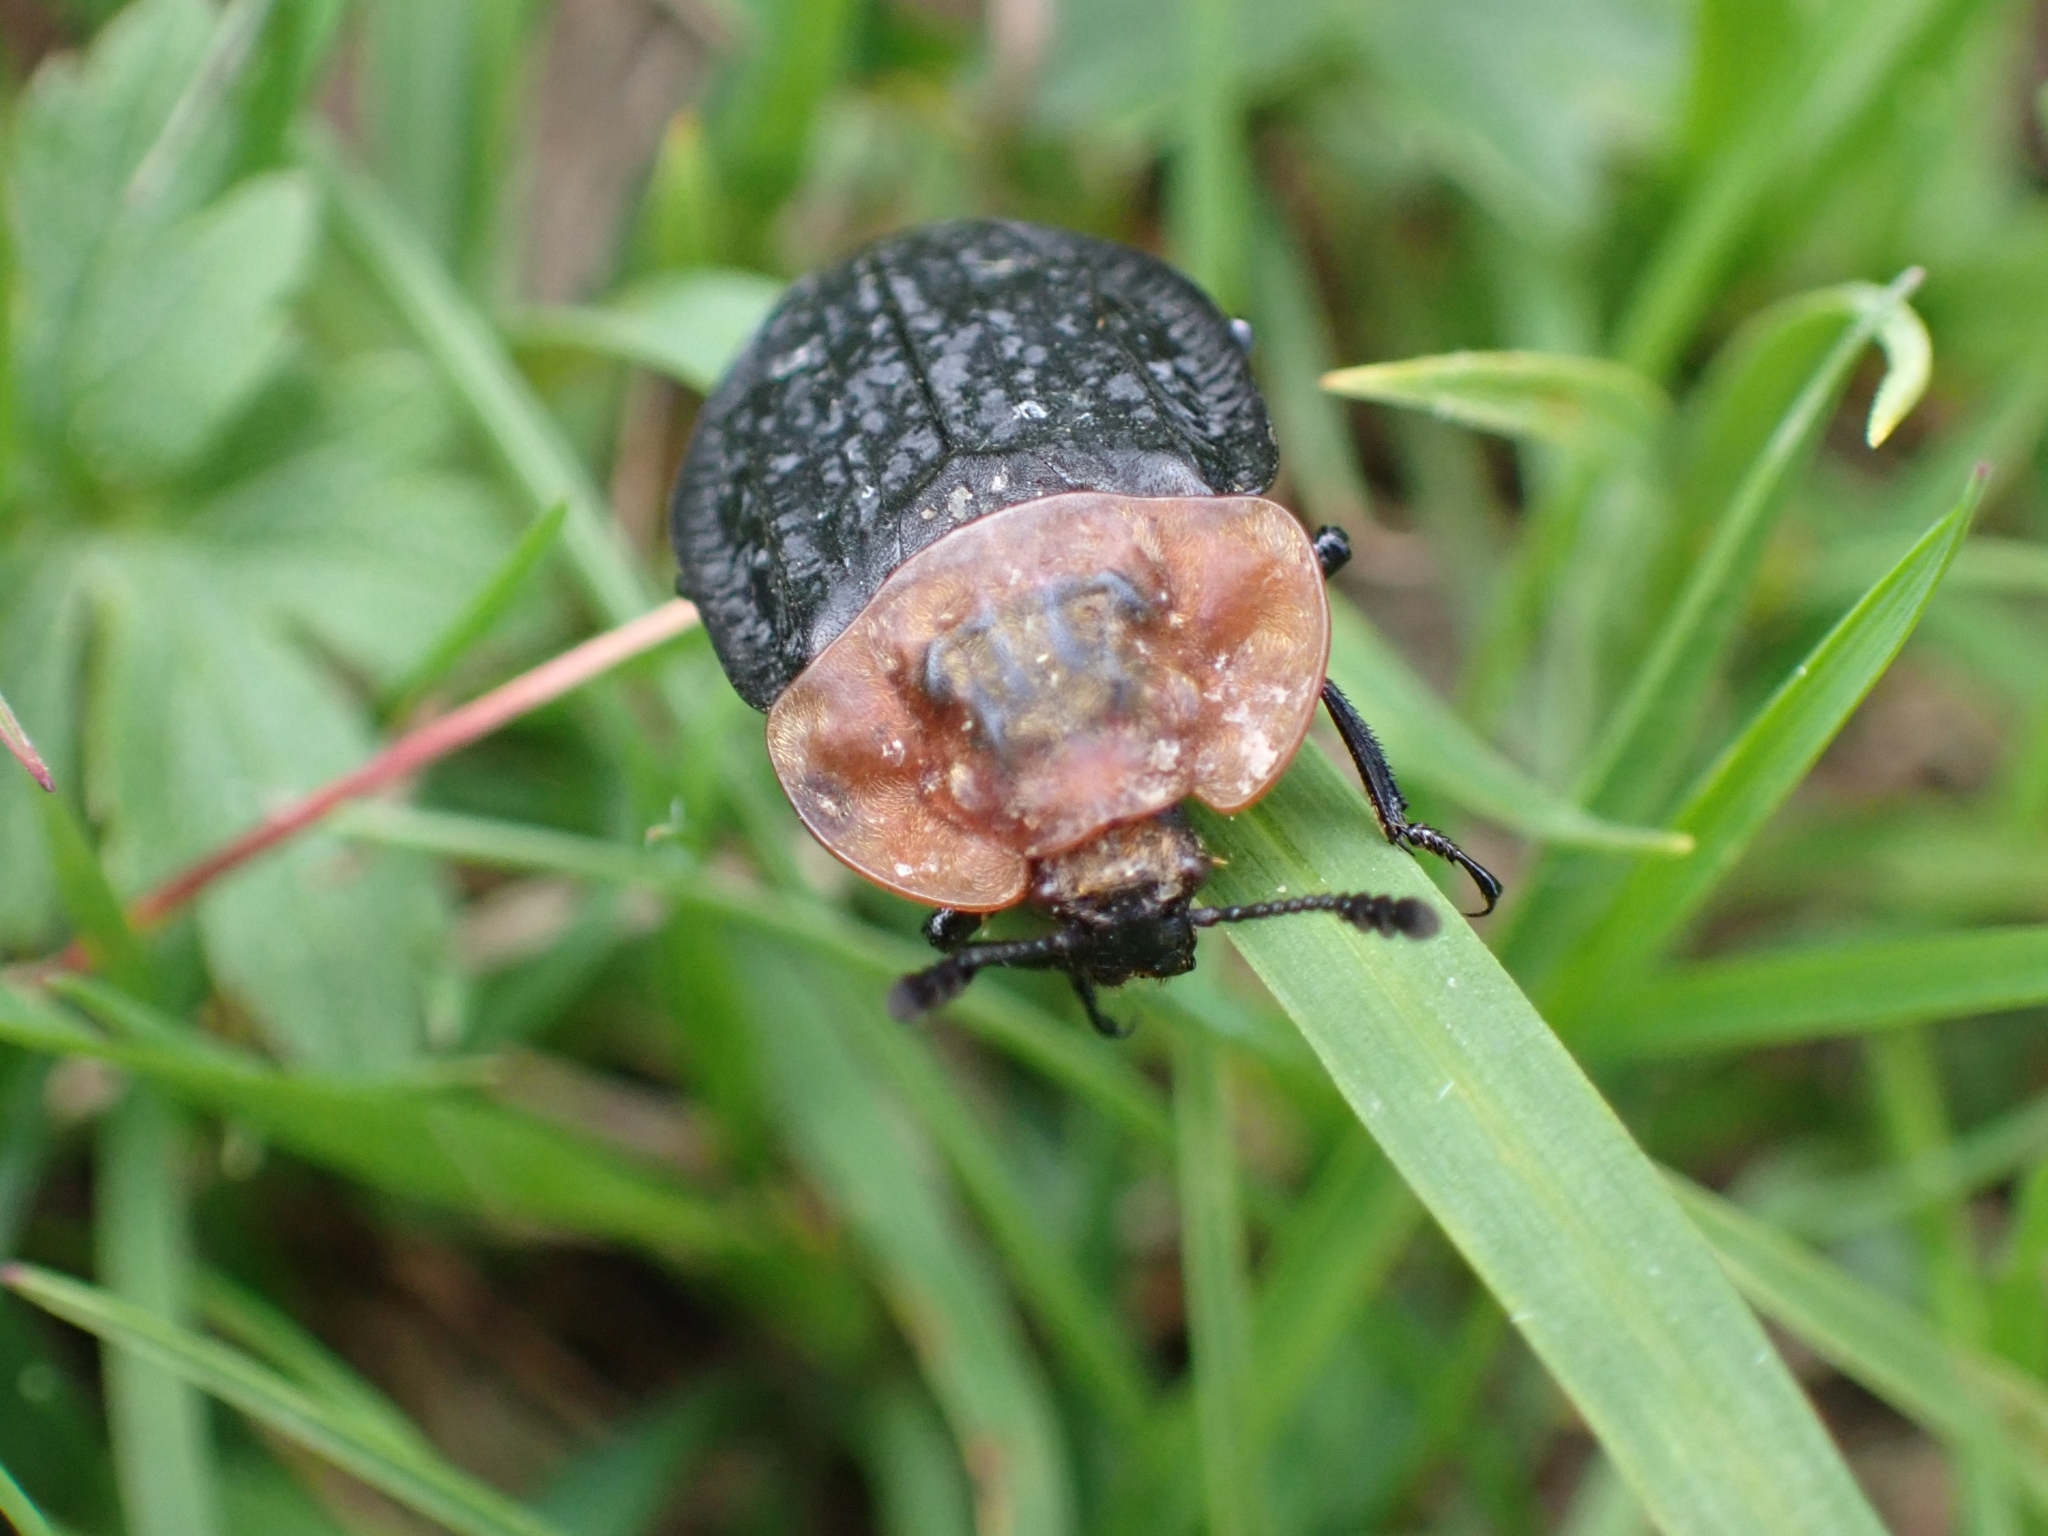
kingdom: Animalia
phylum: Arthropoda
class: Insecta
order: Coleoptera
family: Staphylinidae
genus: Oiceoptoma
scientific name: Oiceoptoma thoracicum
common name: Red-breasted carrion beetle
